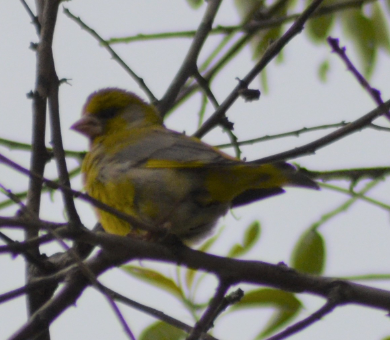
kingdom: Plantae
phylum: Tracheophyta
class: Liliopsida
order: Poales
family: Poaceae
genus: Chloris
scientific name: Chloris chloris
